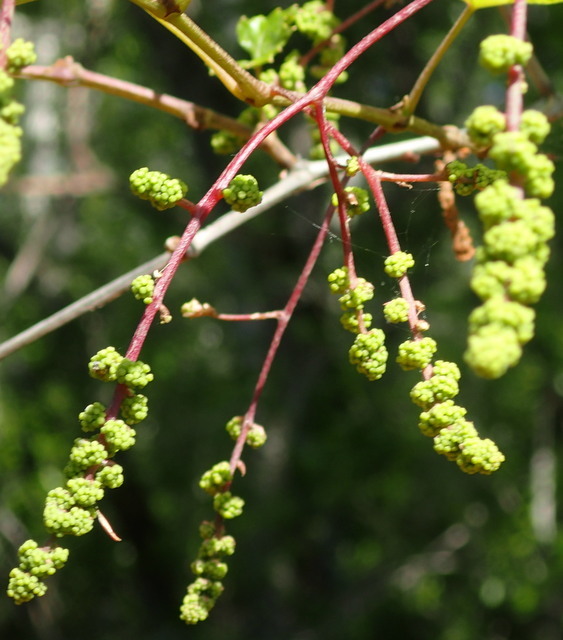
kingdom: Plantae
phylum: Tracheophyta
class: Magnoliopsida
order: Vitales
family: Vitaceae
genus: Vitis
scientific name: Vitis vulpina
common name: Frost grape
